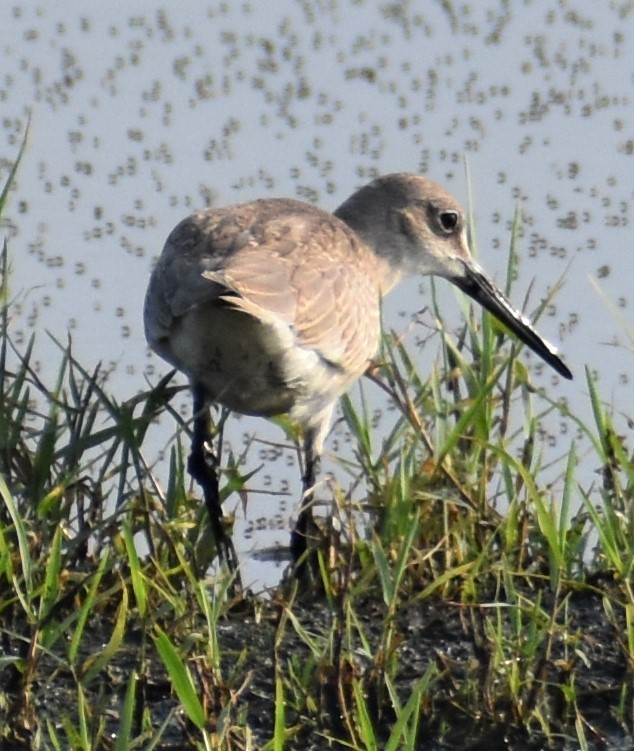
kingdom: Animalia
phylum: Chordata
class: Aves
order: Charadriiformes
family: Scolopacidae
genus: Tringa
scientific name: Tringa semipalmata
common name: Willet
